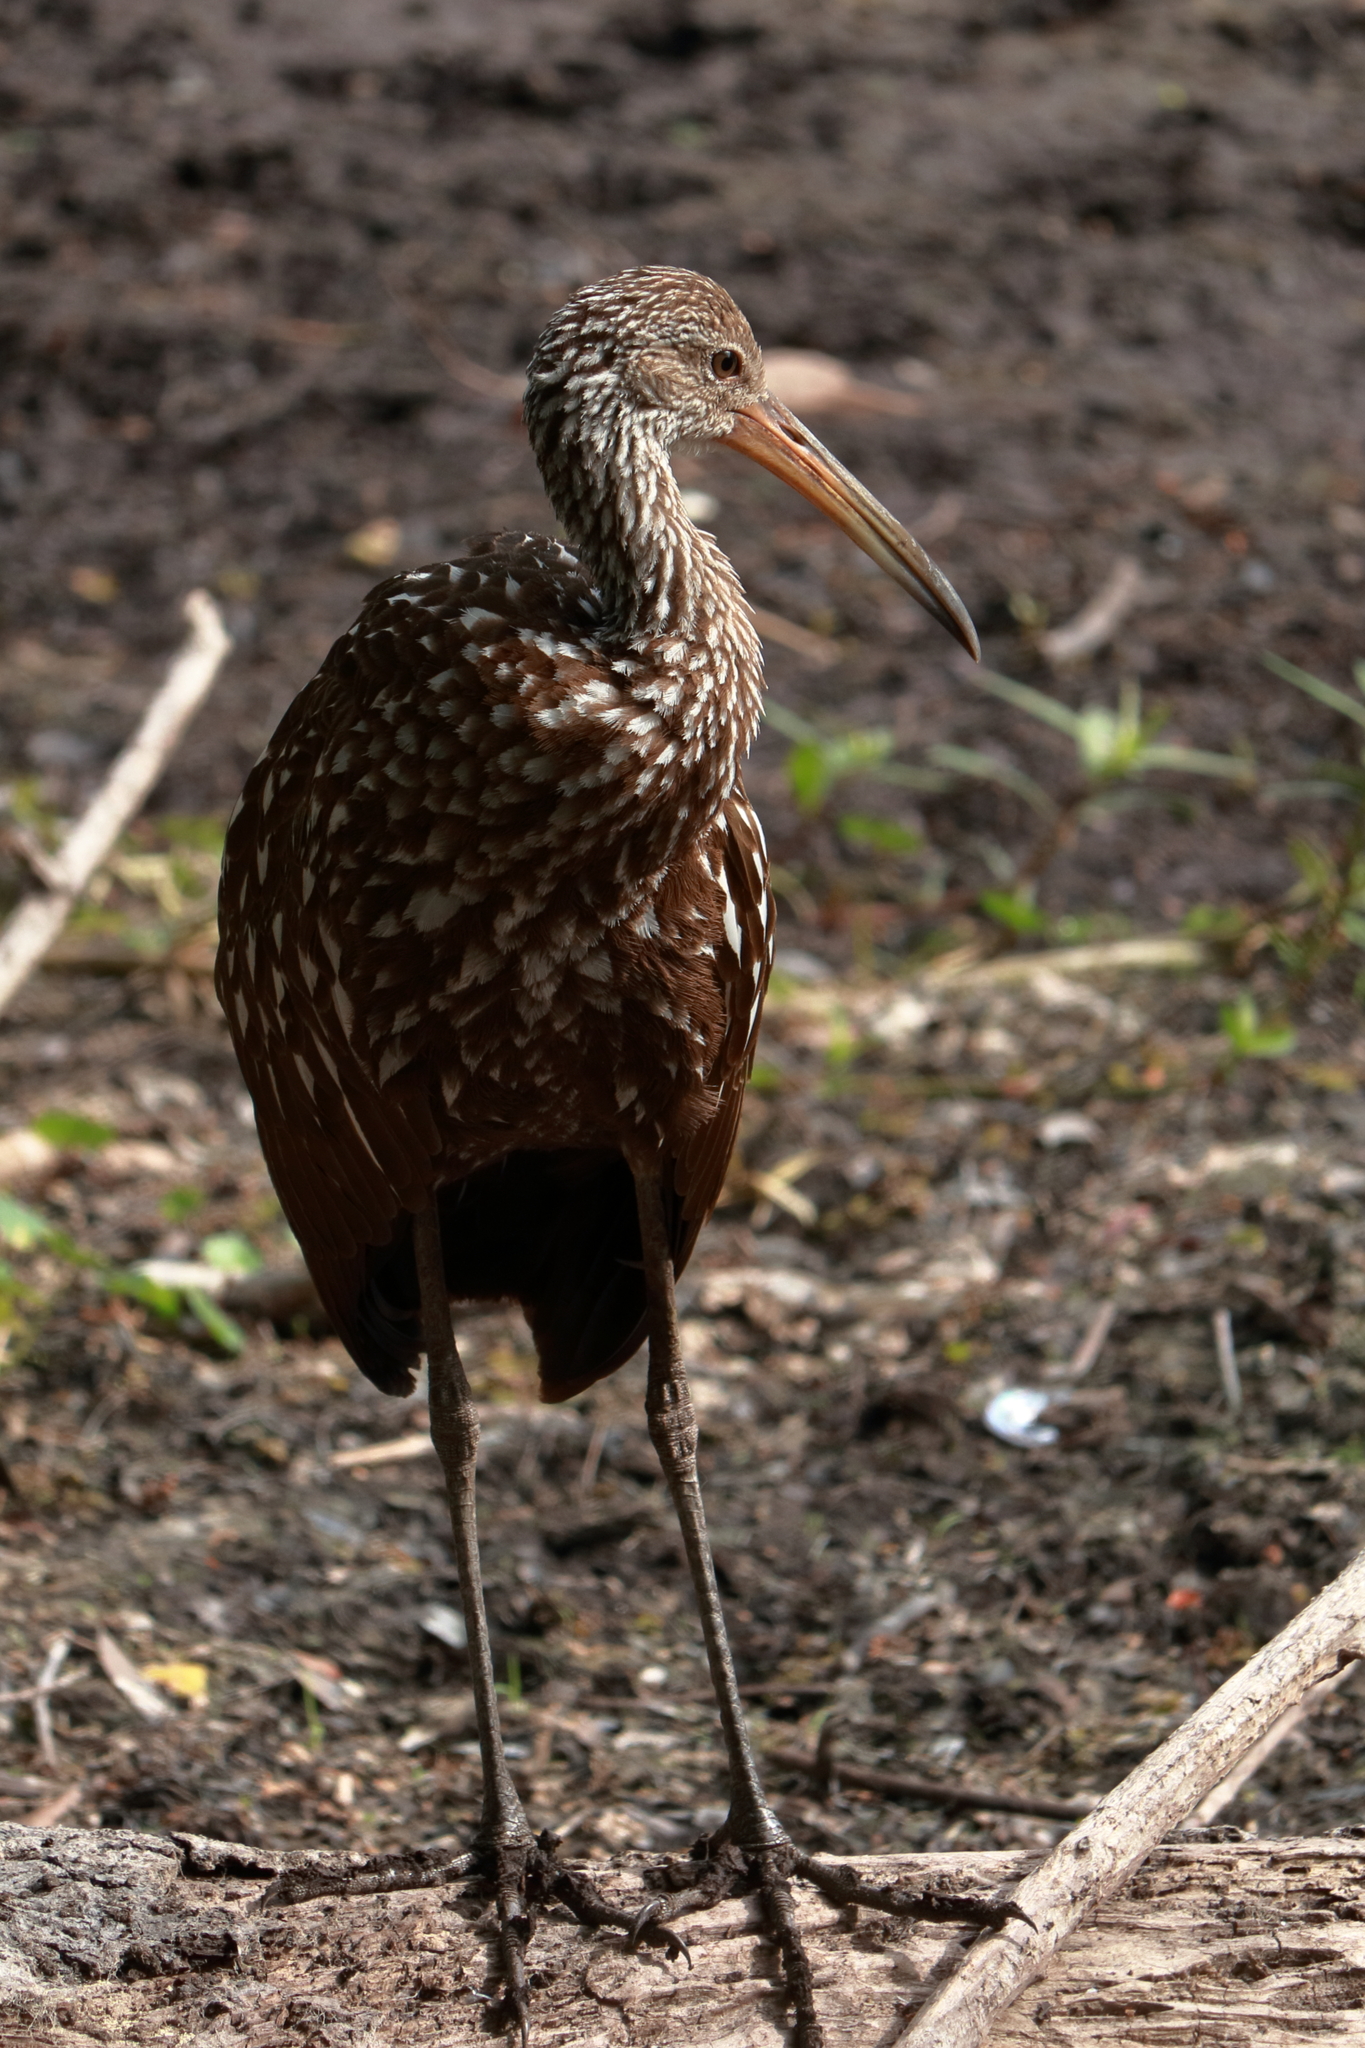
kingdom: Animalia
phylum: Chordata
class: Aves
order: Gruiformes
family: Aramidae
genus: Aramus
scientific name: Aramus guarauna
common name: Limpkin
